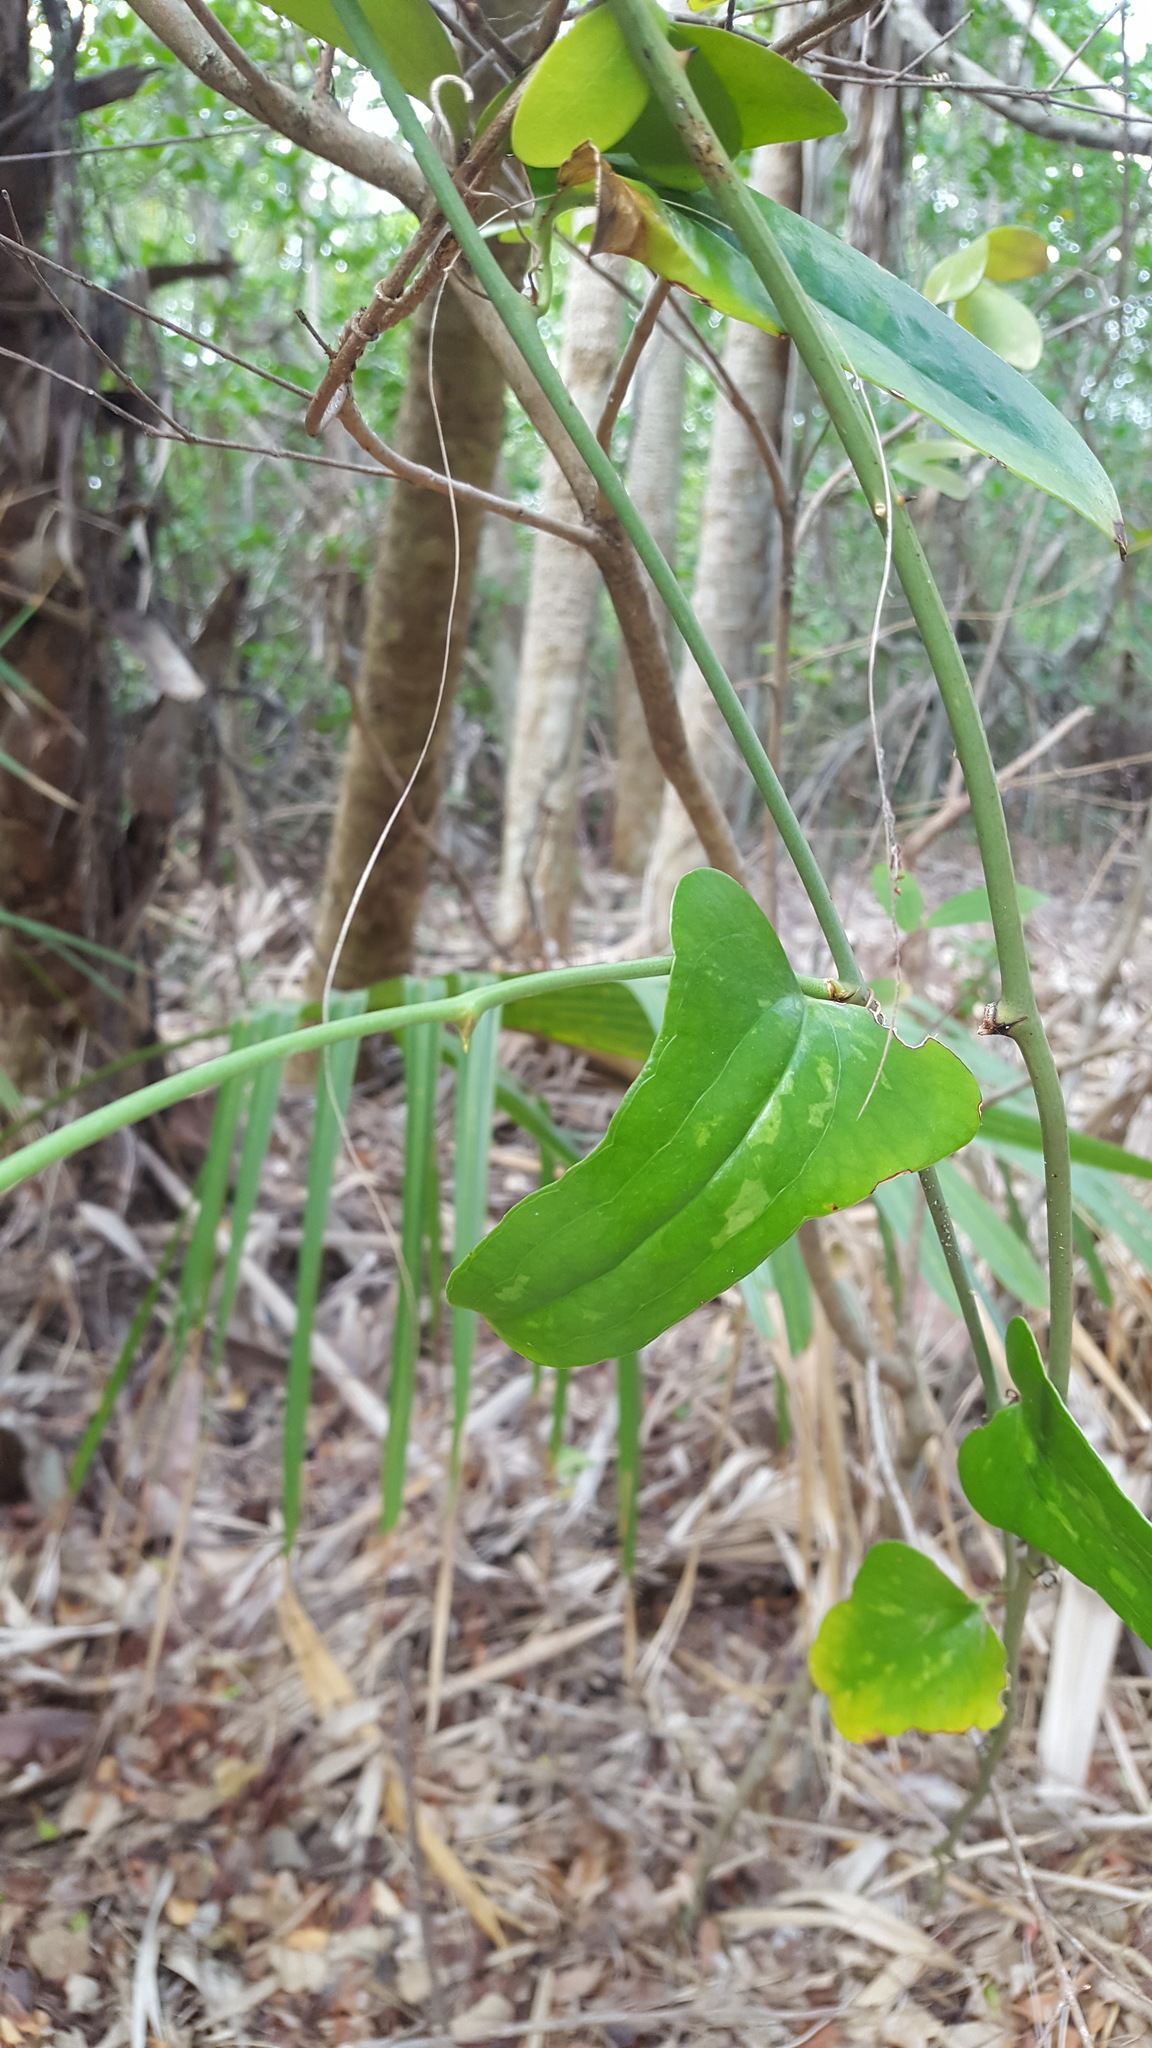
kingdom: Plantae
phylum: Tracheophyta
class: Liliopsida
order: Liliales
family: Smilacaceae
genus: Smilax
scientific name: Smilax auriculata
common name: Wild bamboo
